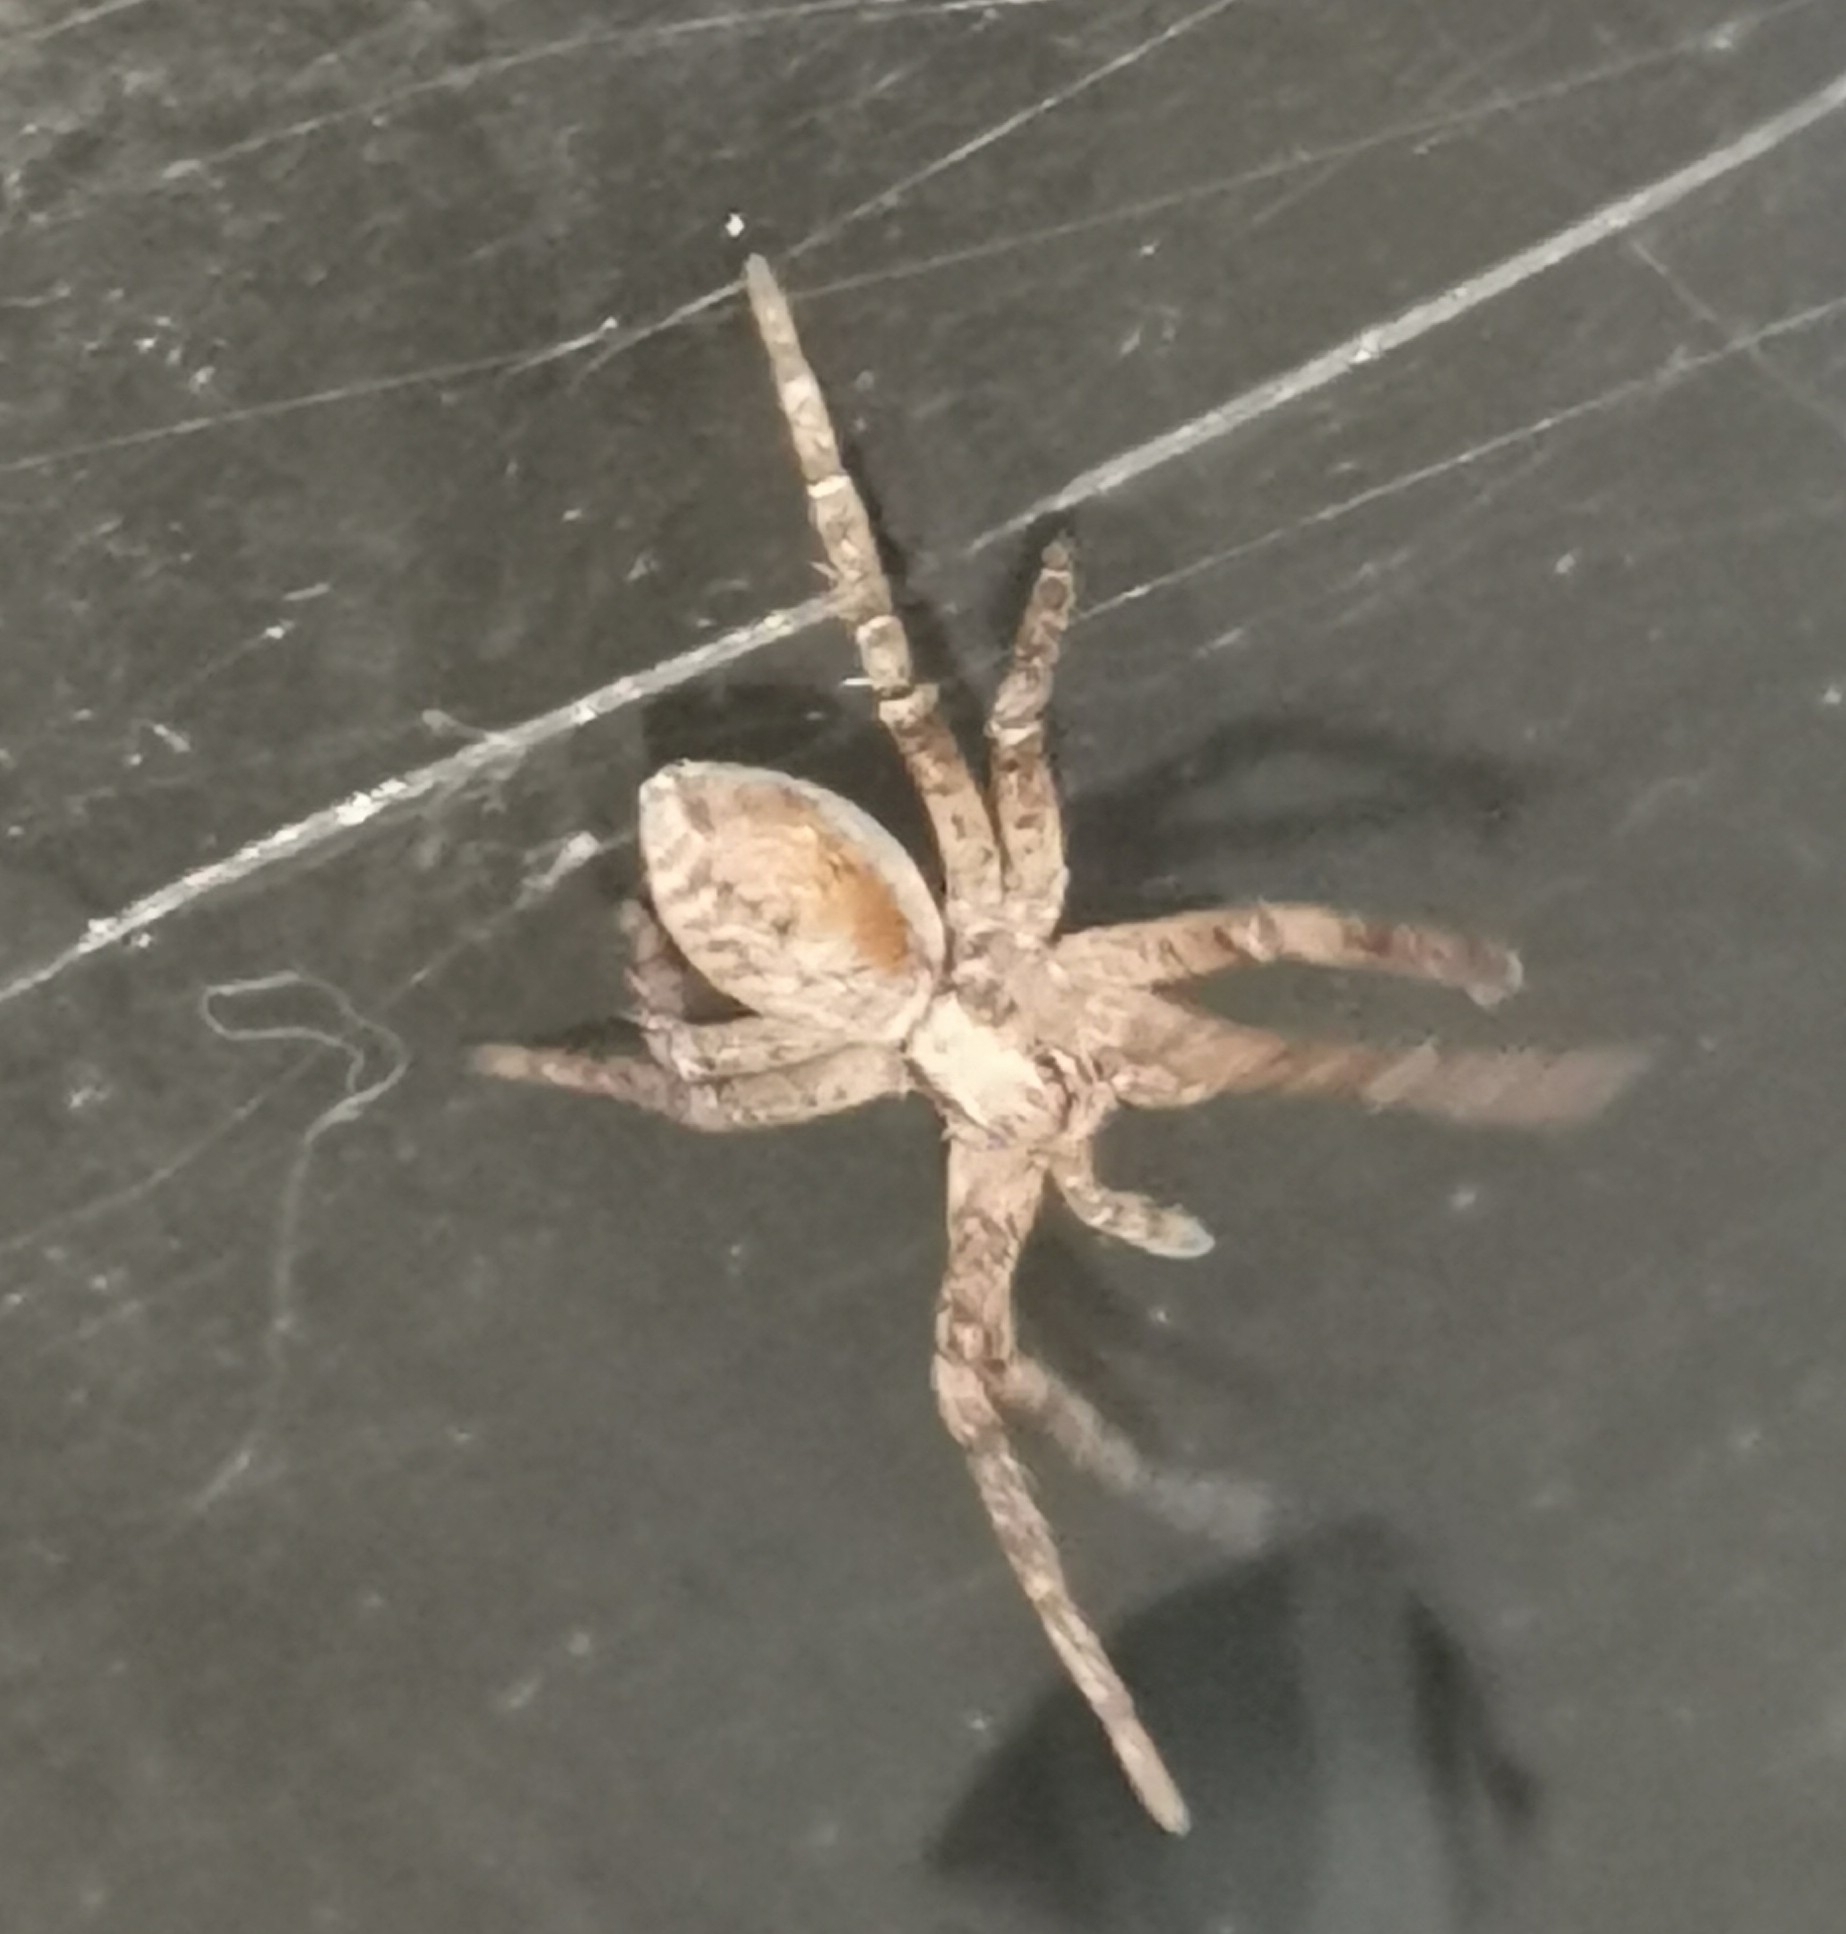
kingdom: Animalia
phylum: Arthropoda
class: Arachnida
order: Araneae
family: Philodromidae
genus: Philodromus
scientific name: Philodromus
